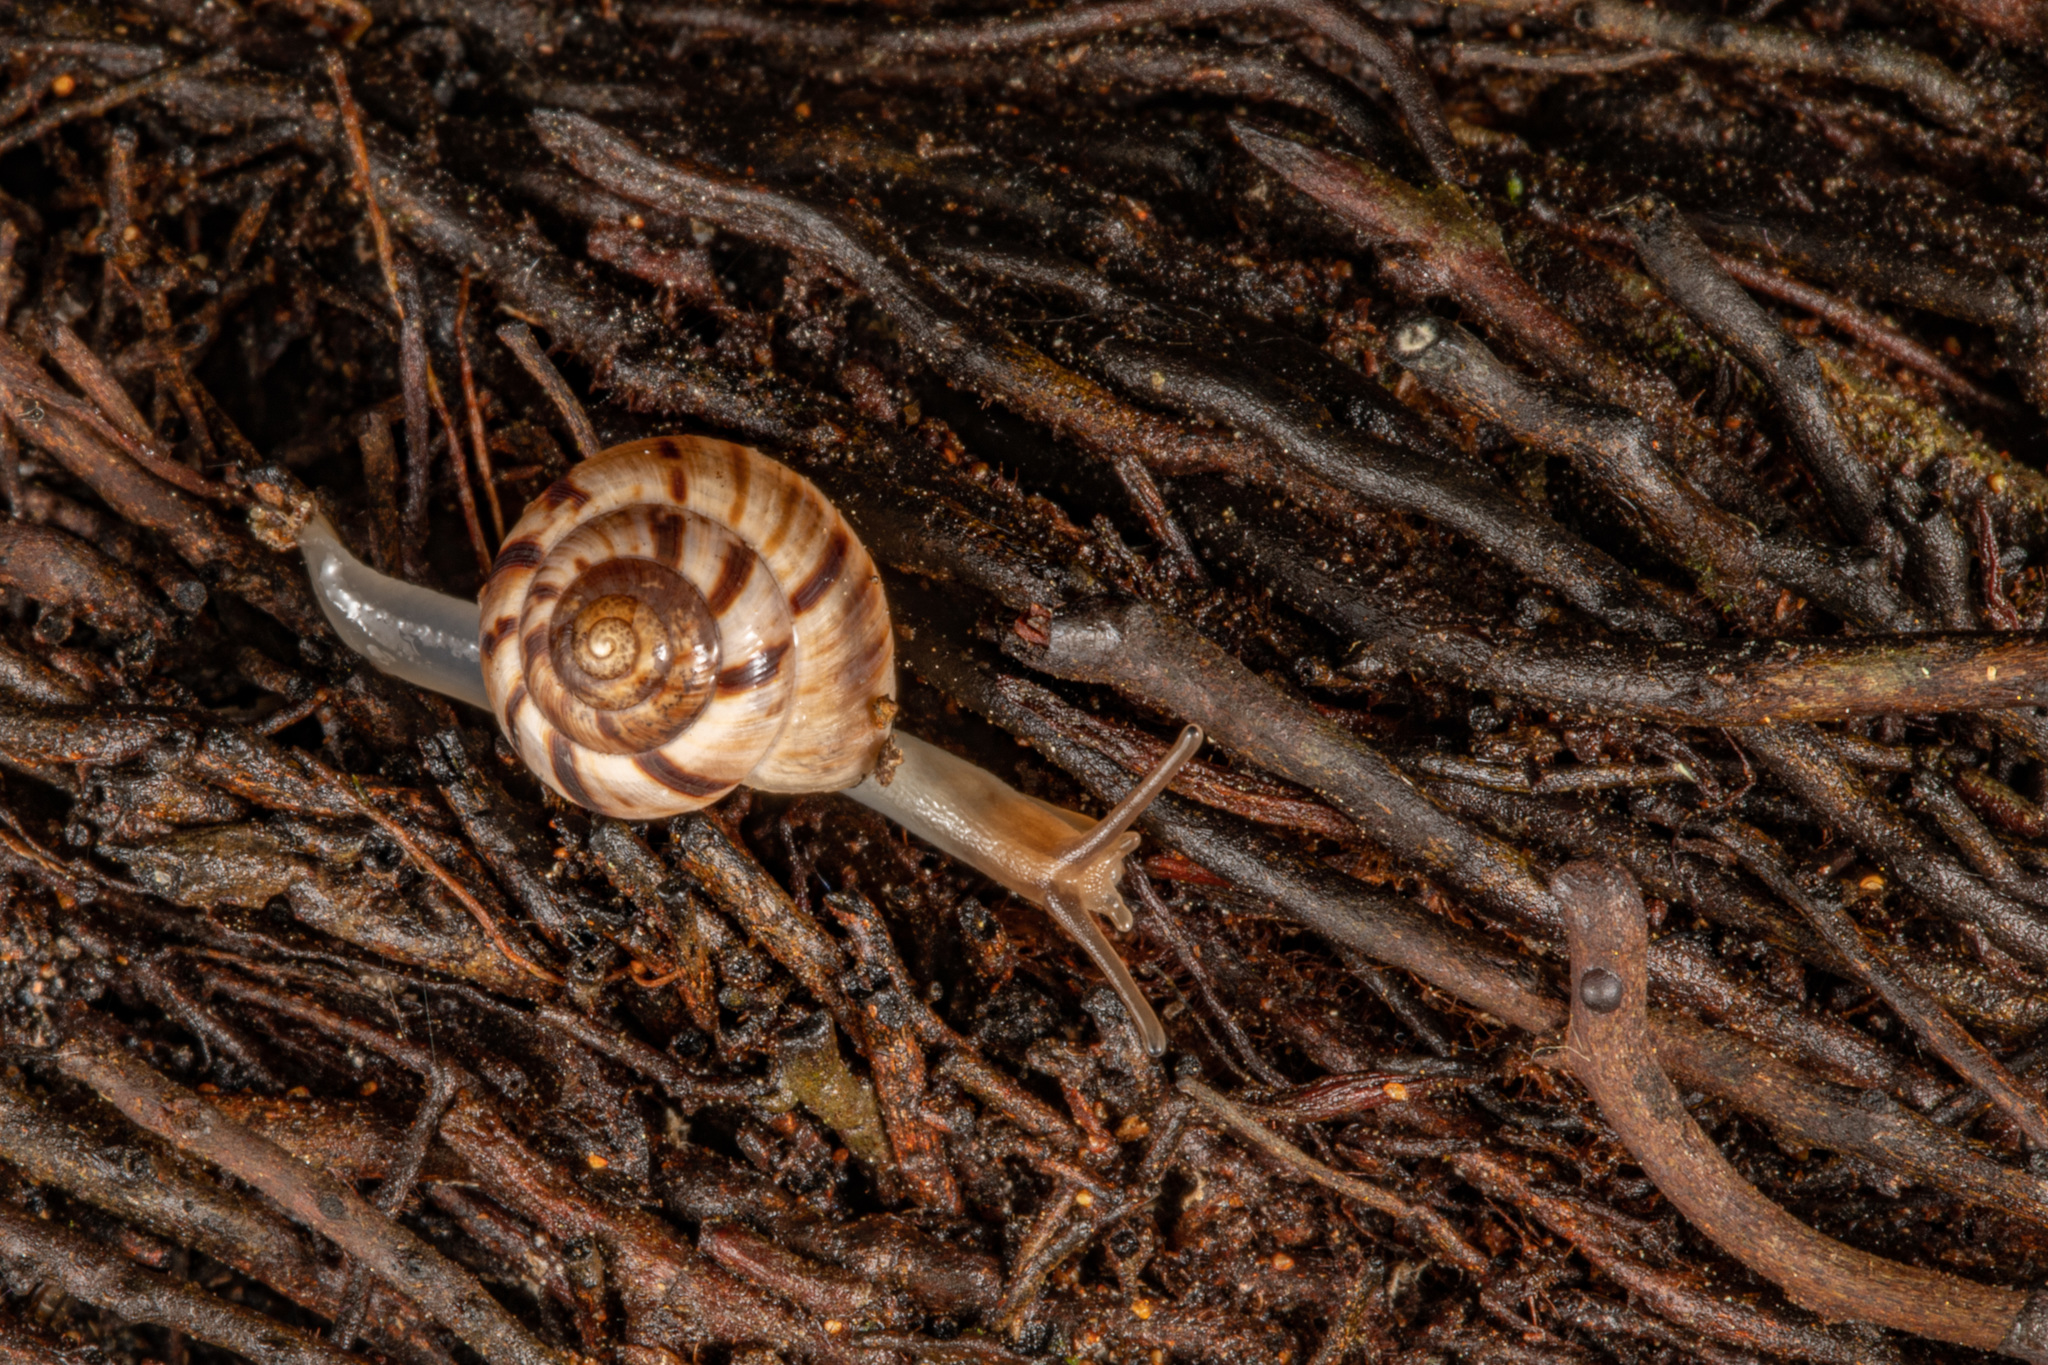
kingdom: Animalia
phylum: Mollusca
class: Gastropoda
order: Stylommatophora
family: Charopidae
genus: Serpho
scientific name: Serpho
